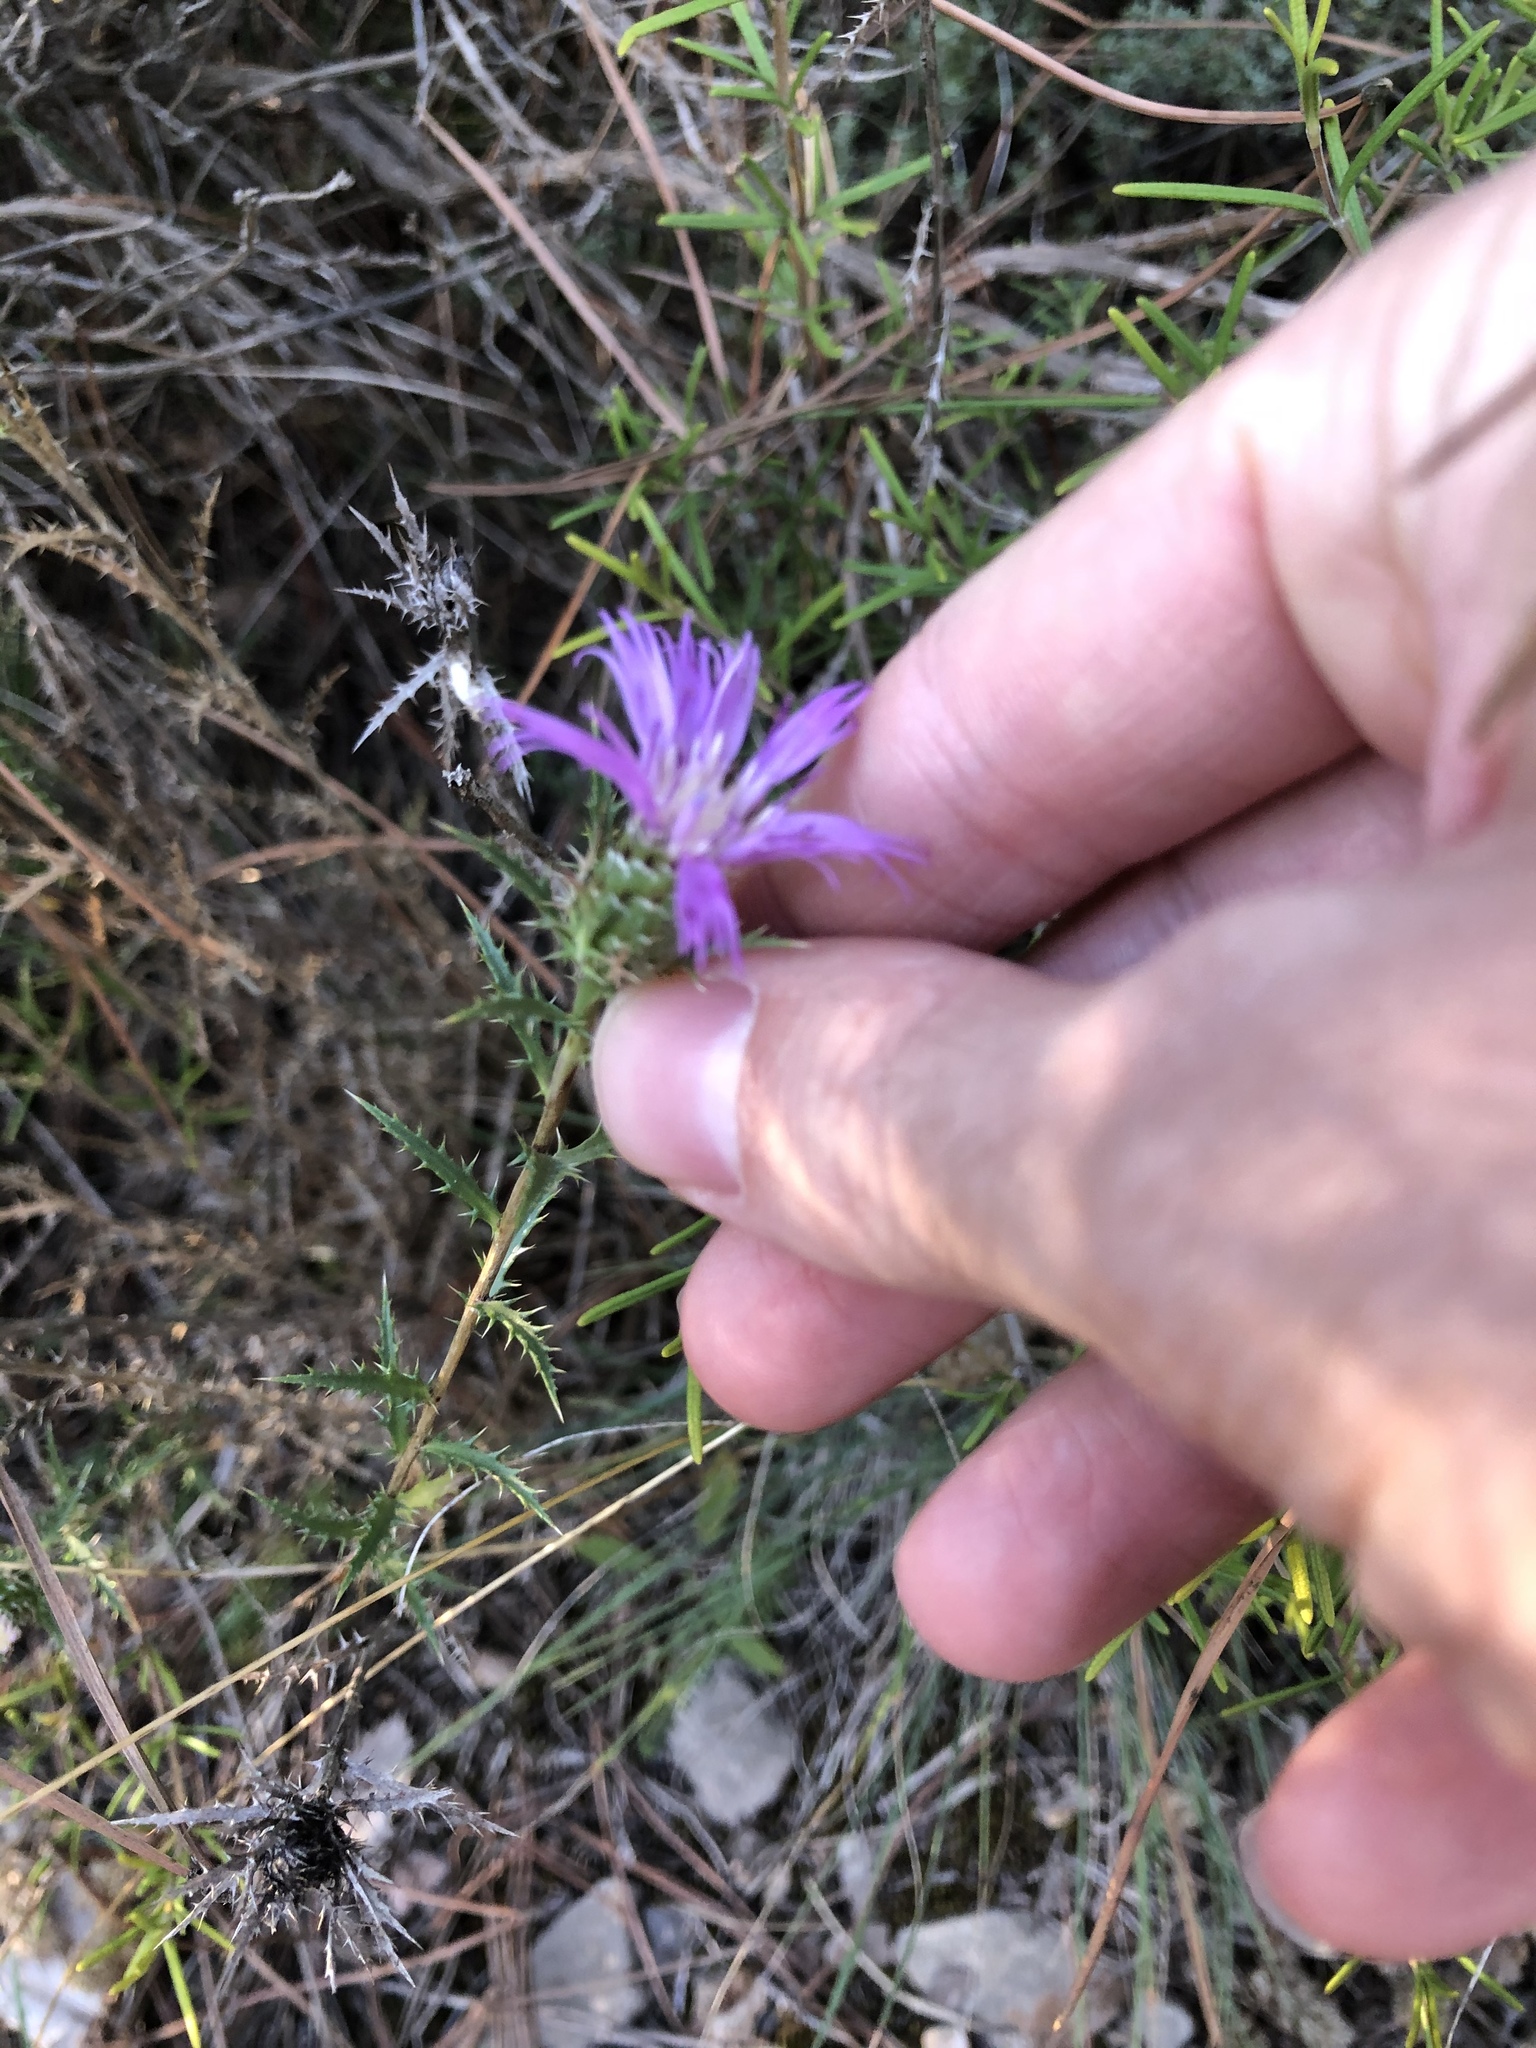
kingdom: Plantae
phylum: Tracheophyta
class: Magnoliopsida
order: Asterales
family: Asteraceae
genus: Atractylis
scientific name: Atractylis humilis
